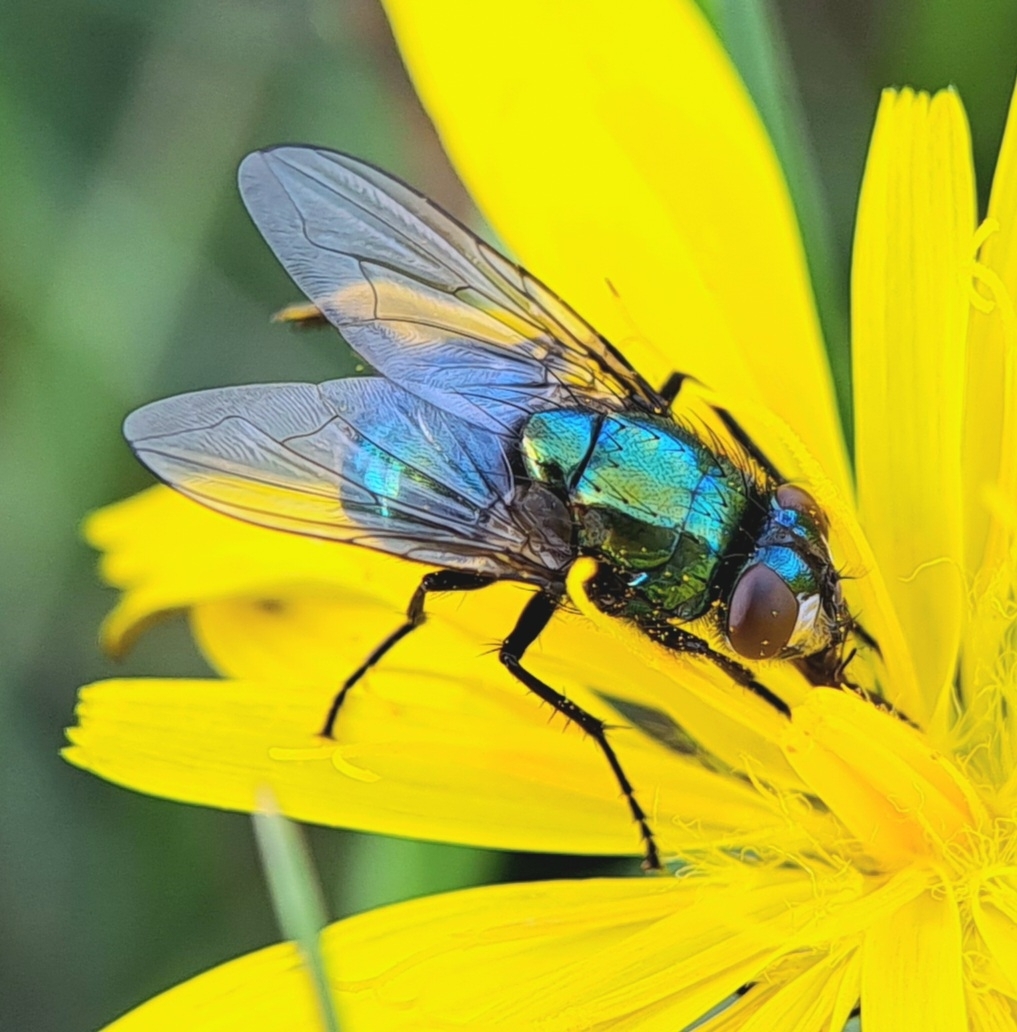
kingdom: Animalia
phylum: Arthropoda
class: Insecta
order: Diptera
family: Muscidae
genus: Neomyia
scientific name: Neomyia cornicina
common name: House fly
